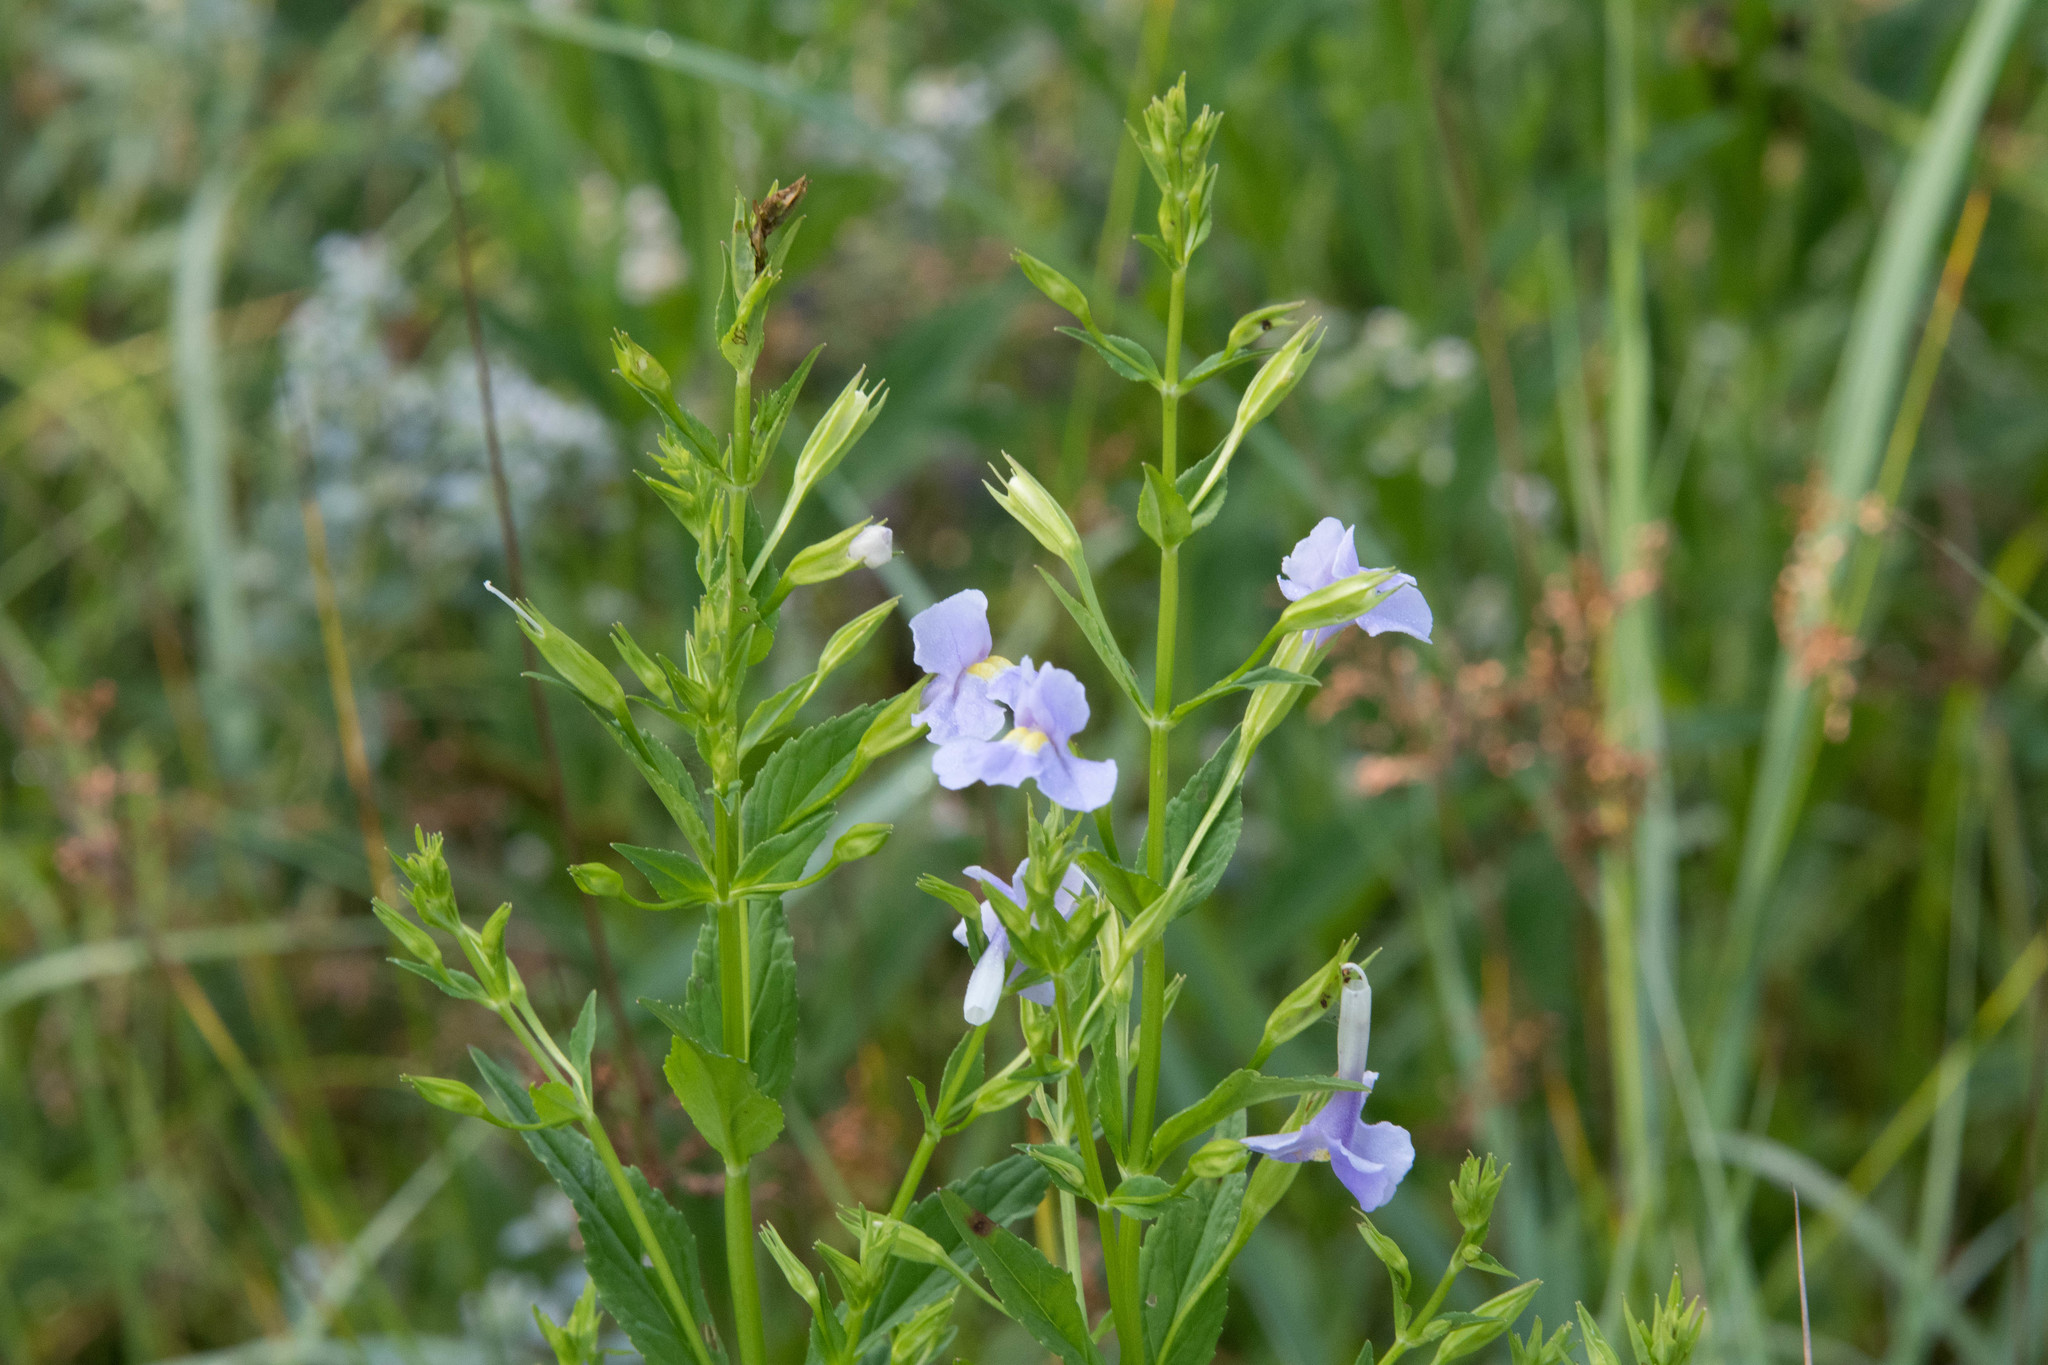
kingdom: Plantae
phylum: Tracheophyta
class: Magnoliopsida
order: Lamiales
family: Phrymaceae
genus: Mimulus
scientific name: Mimulus ringens
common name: Allegheny monkeyflower
